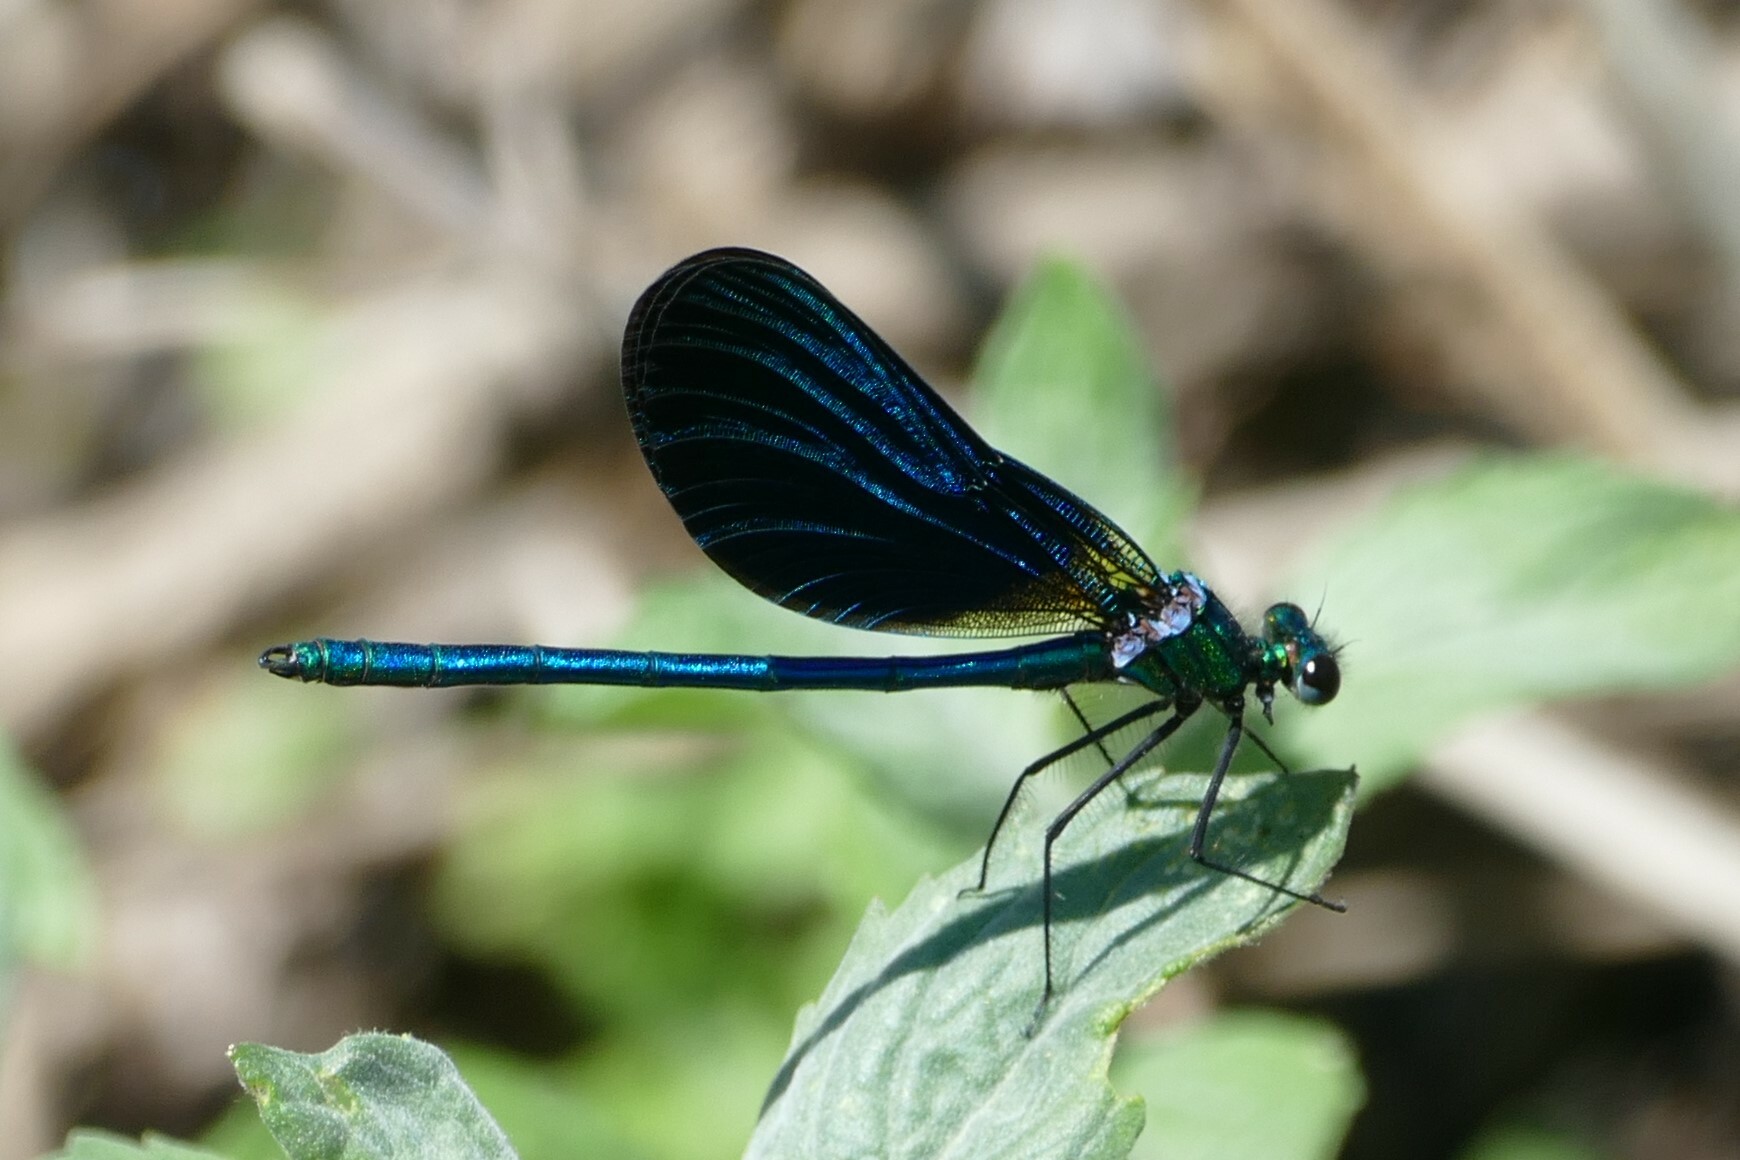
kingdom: Animalia
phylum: Arthropoda
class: Insecta
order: Odonata
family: Calopterygidae
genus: Calopteryx
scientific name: Calopteryx virgo
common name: Beautiful demoiselle
